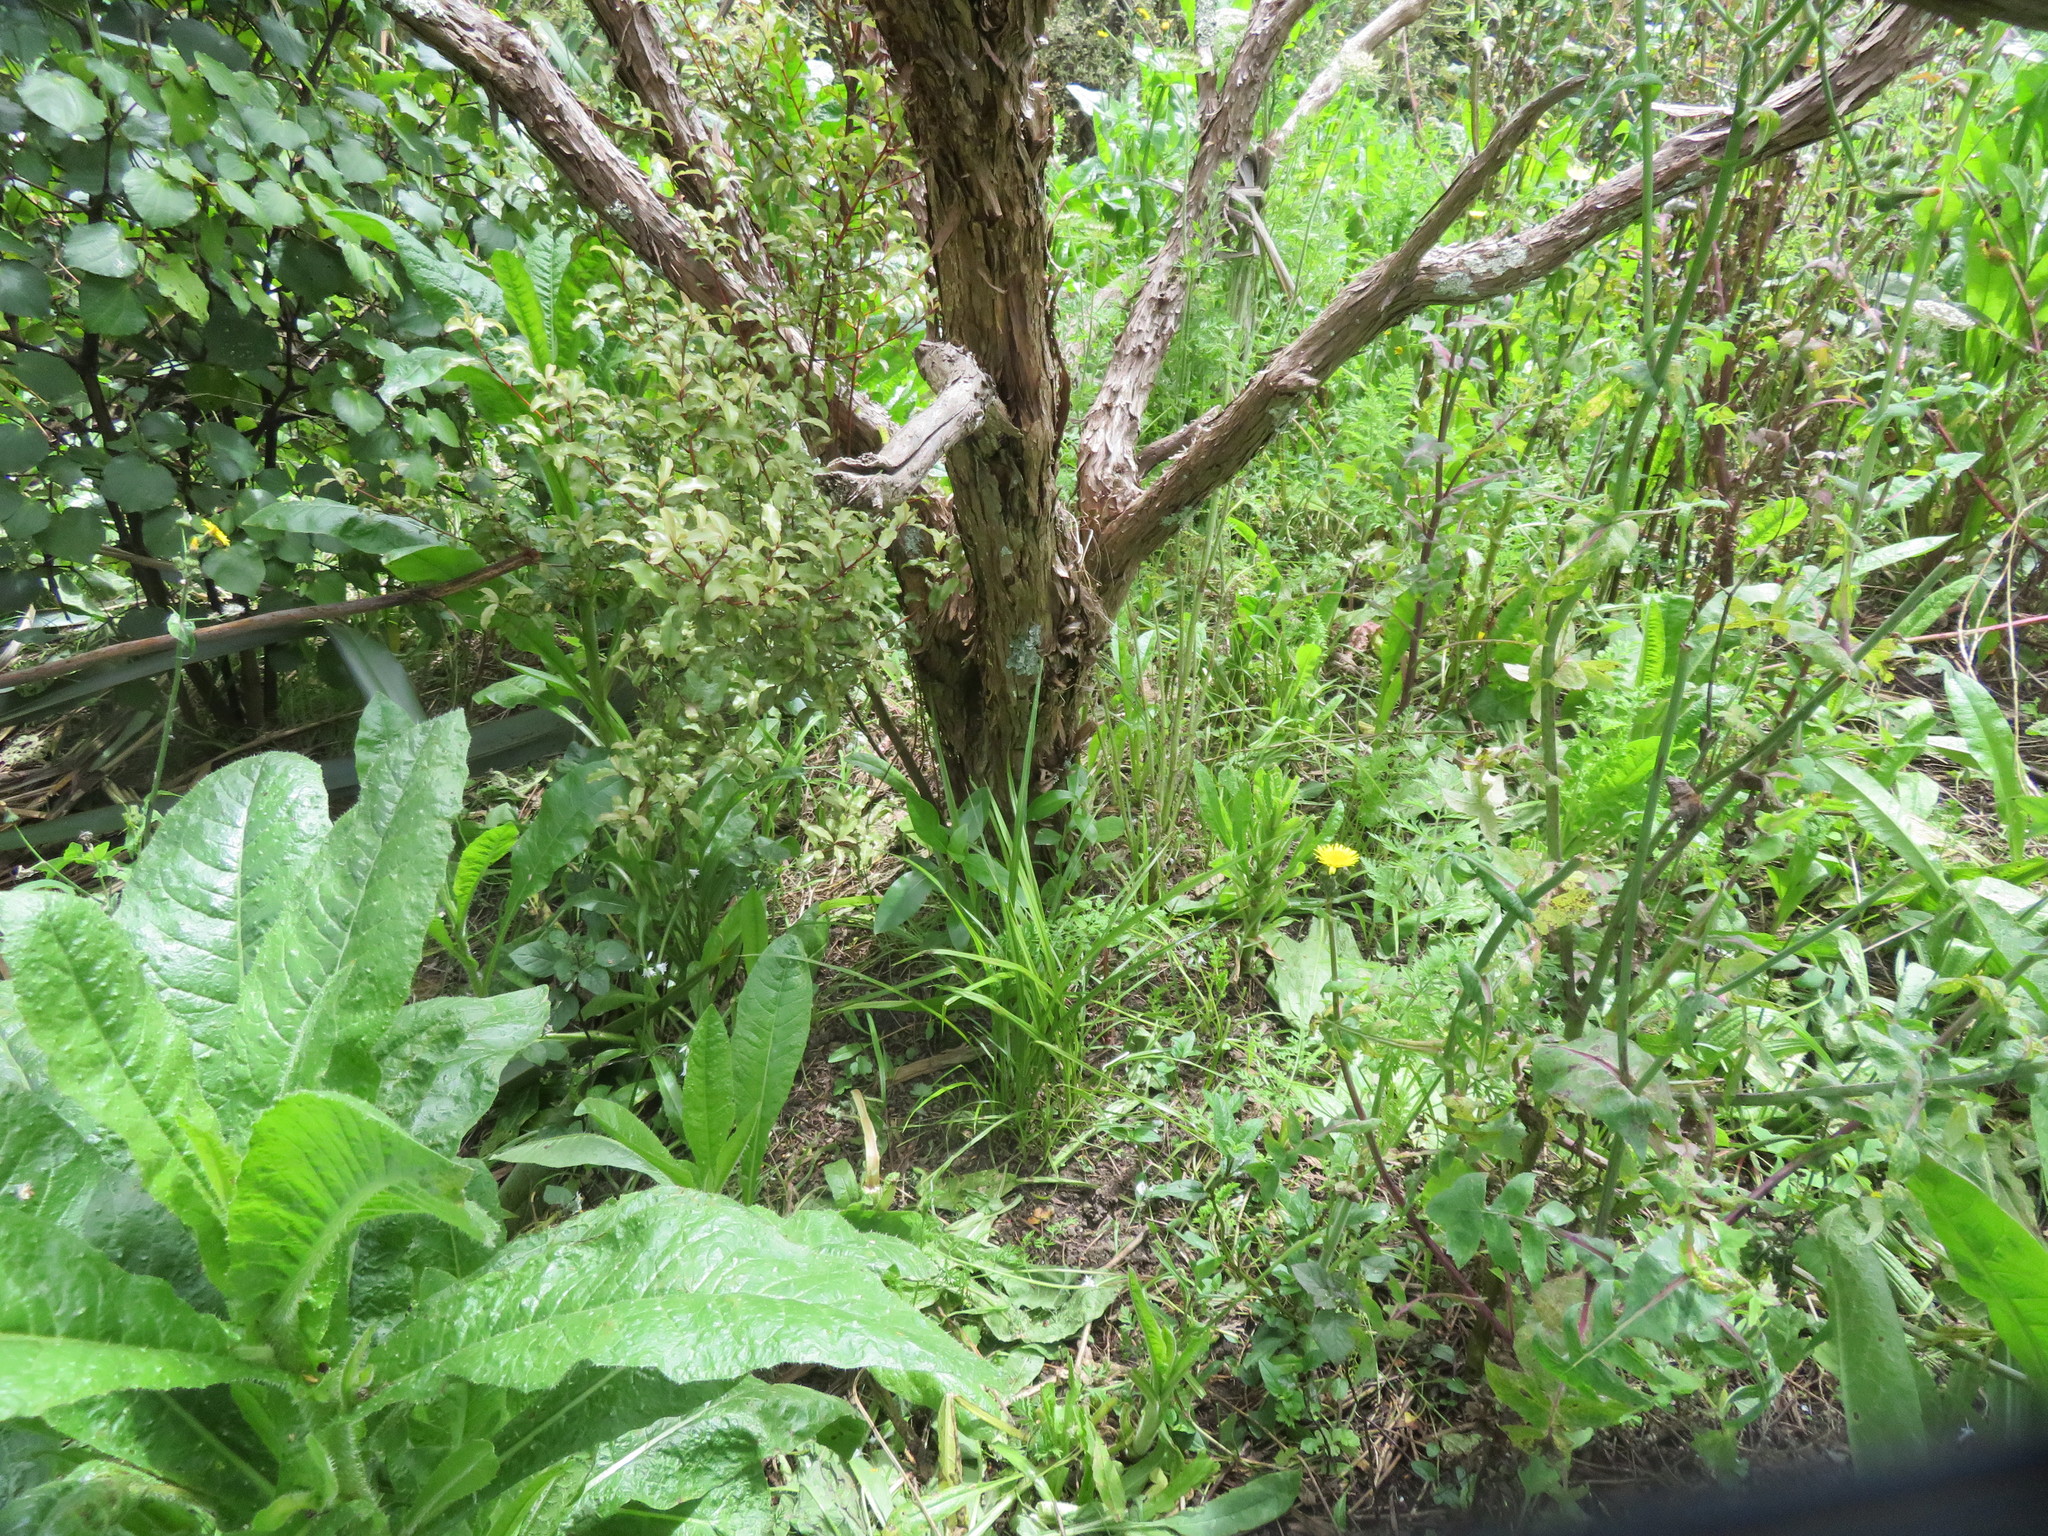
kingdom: Plantae
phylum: Tracheophyta
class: Magnoliopsida
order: Asterales
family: Asteraceae
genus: Helminthotheca
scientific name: Helminthotheca echioides
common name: Ox-tongue
